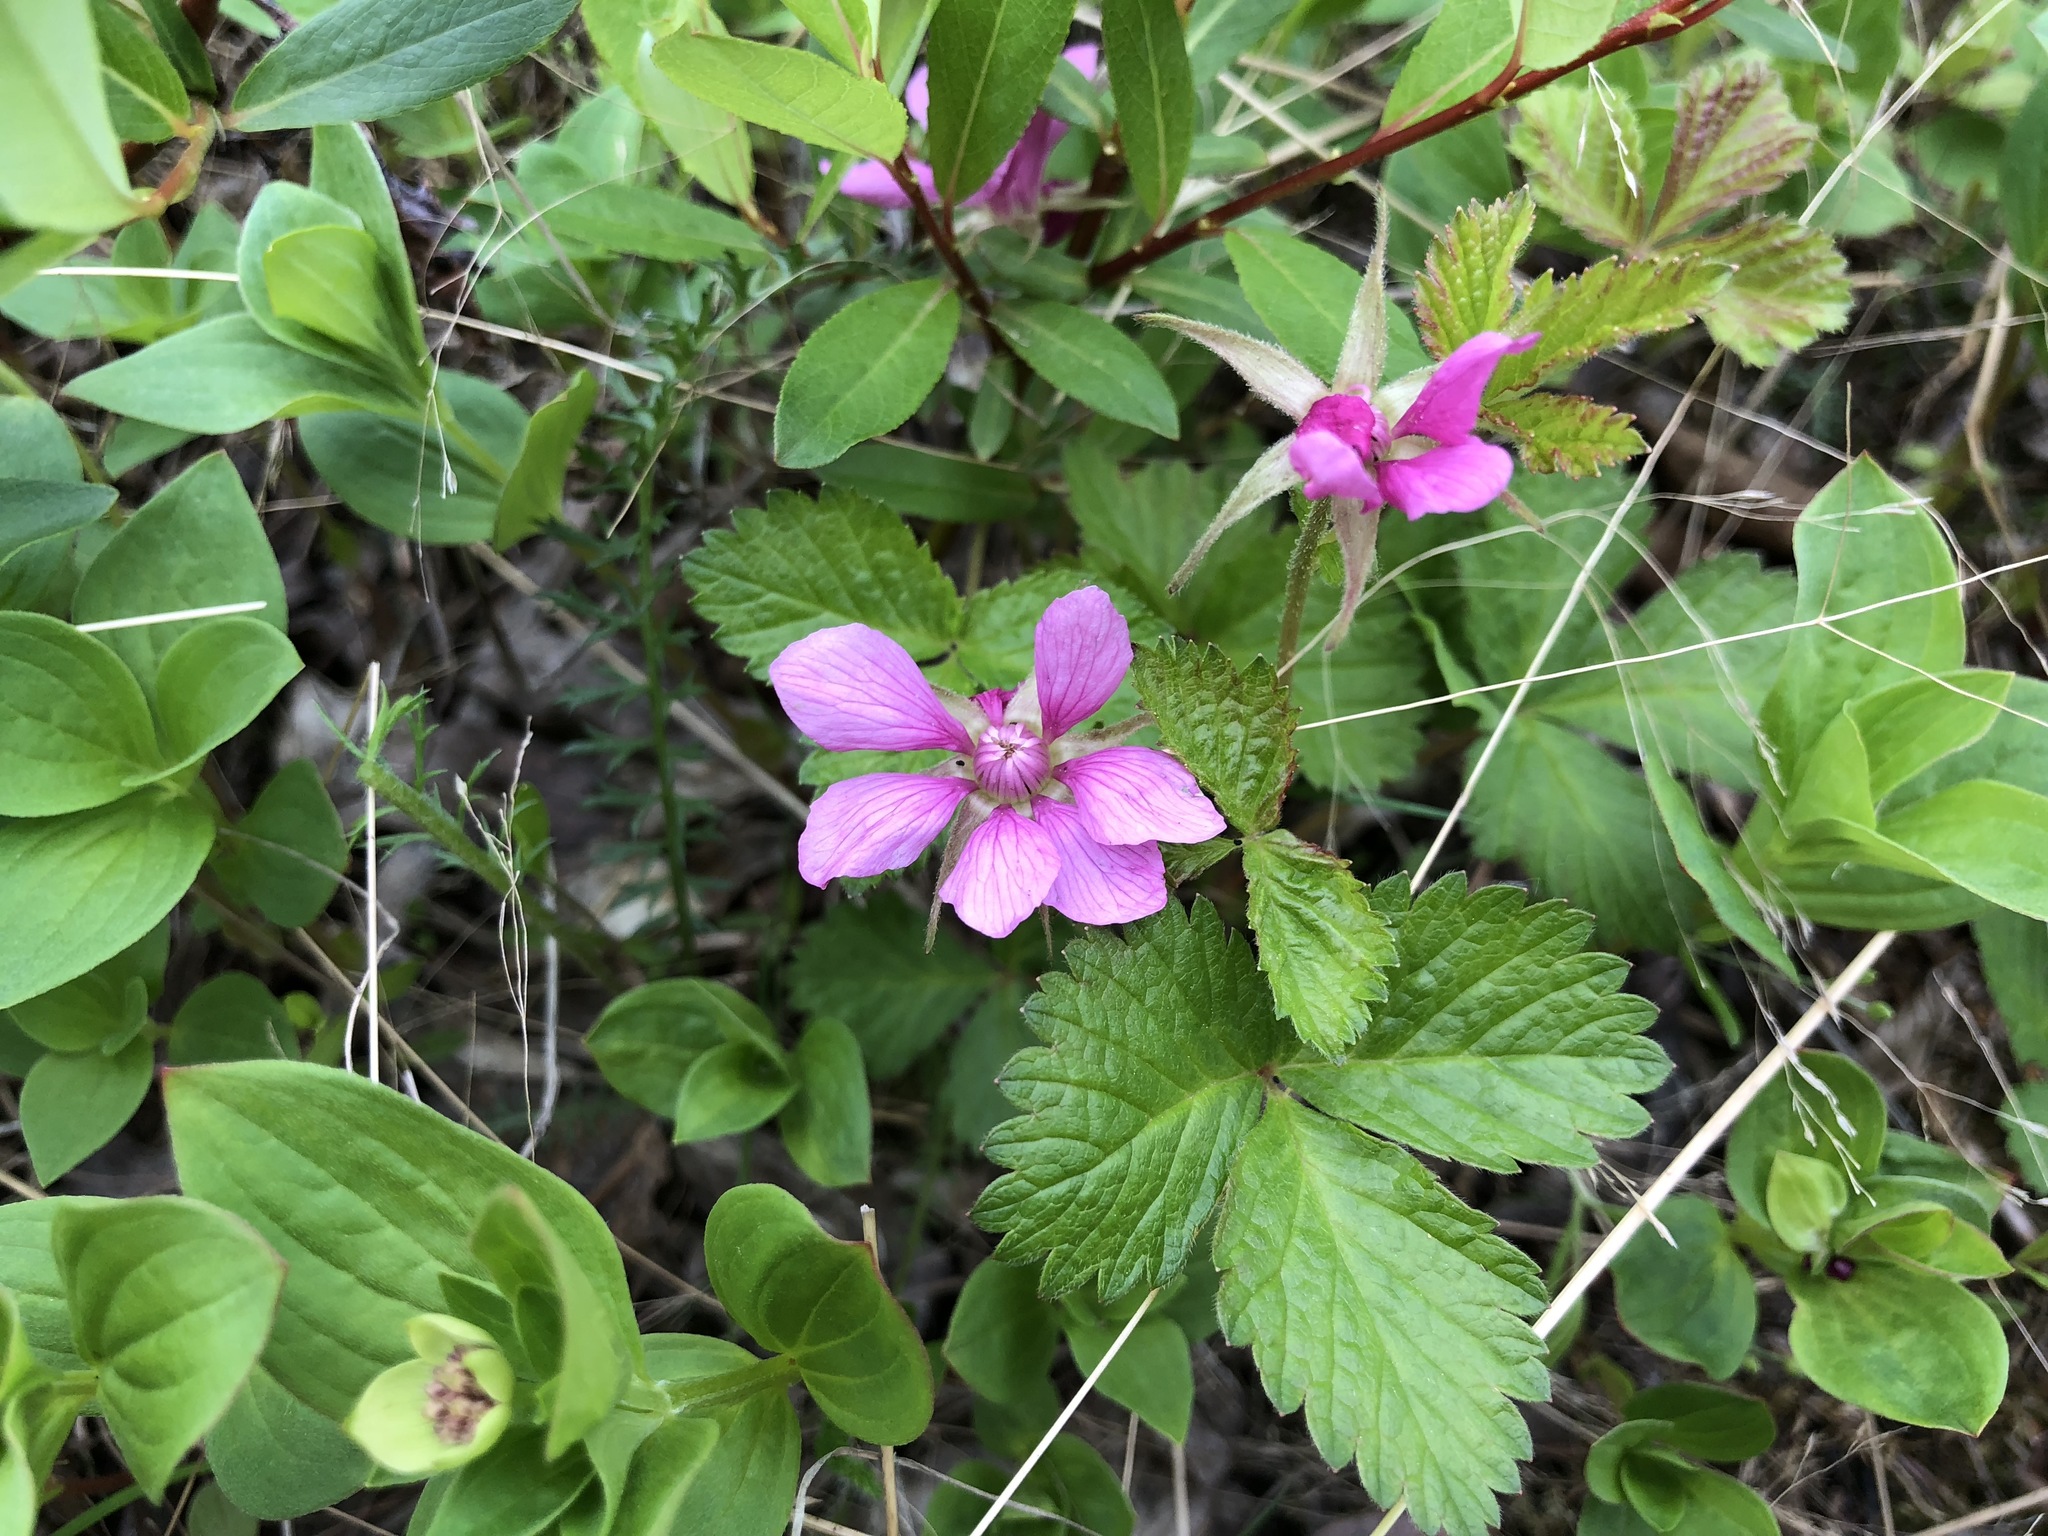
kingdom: Plantae
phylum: Tracheophyta
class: Magnoliopsida
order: Rosales
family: Rosaceae
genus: Rubus
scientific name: Rubus arcticus
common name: Arctic bramble
